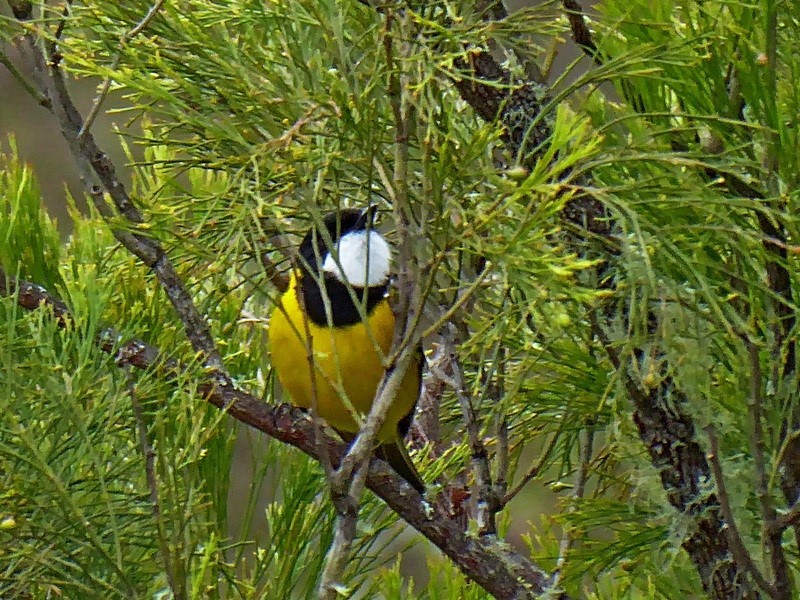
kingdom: Animalia
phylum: Chordata
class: Aves
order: Passeriformes
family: Pachycephalidae
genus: Pachycephala
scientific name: Pachycephala pectoralis
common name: Australian golden whistler
